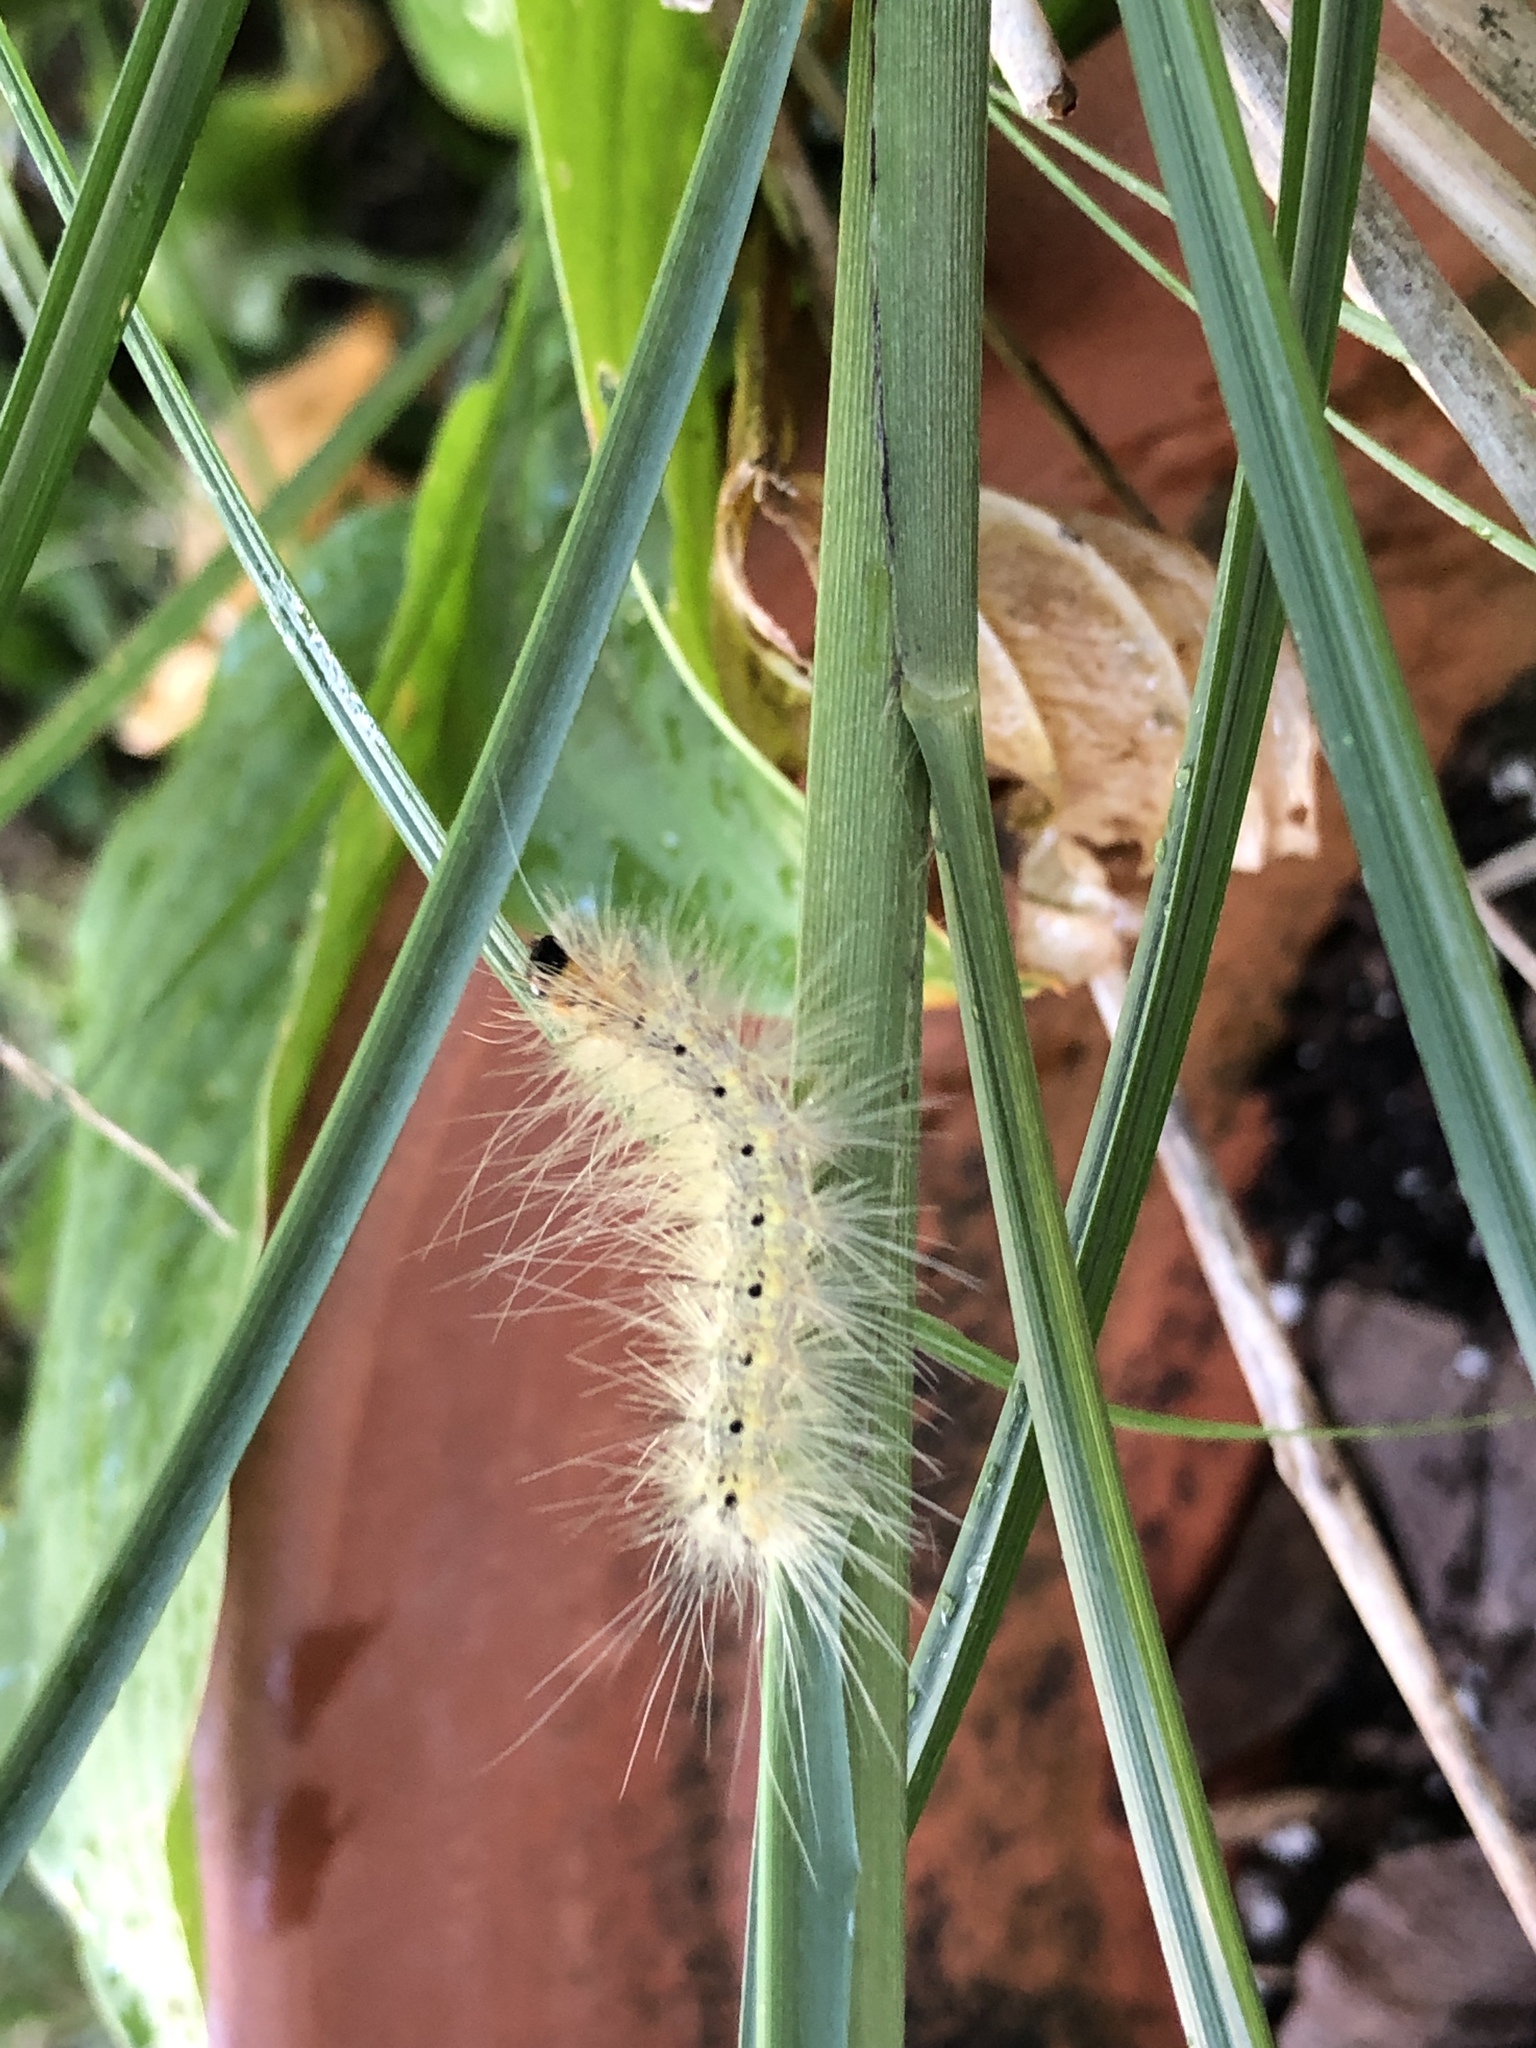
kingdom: Animalia
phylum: Arthropoda
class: Insecta
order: Lepidoptera
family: Erebidae
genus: Hyphantria
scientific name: Hyphantria cunea
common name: American white moth
